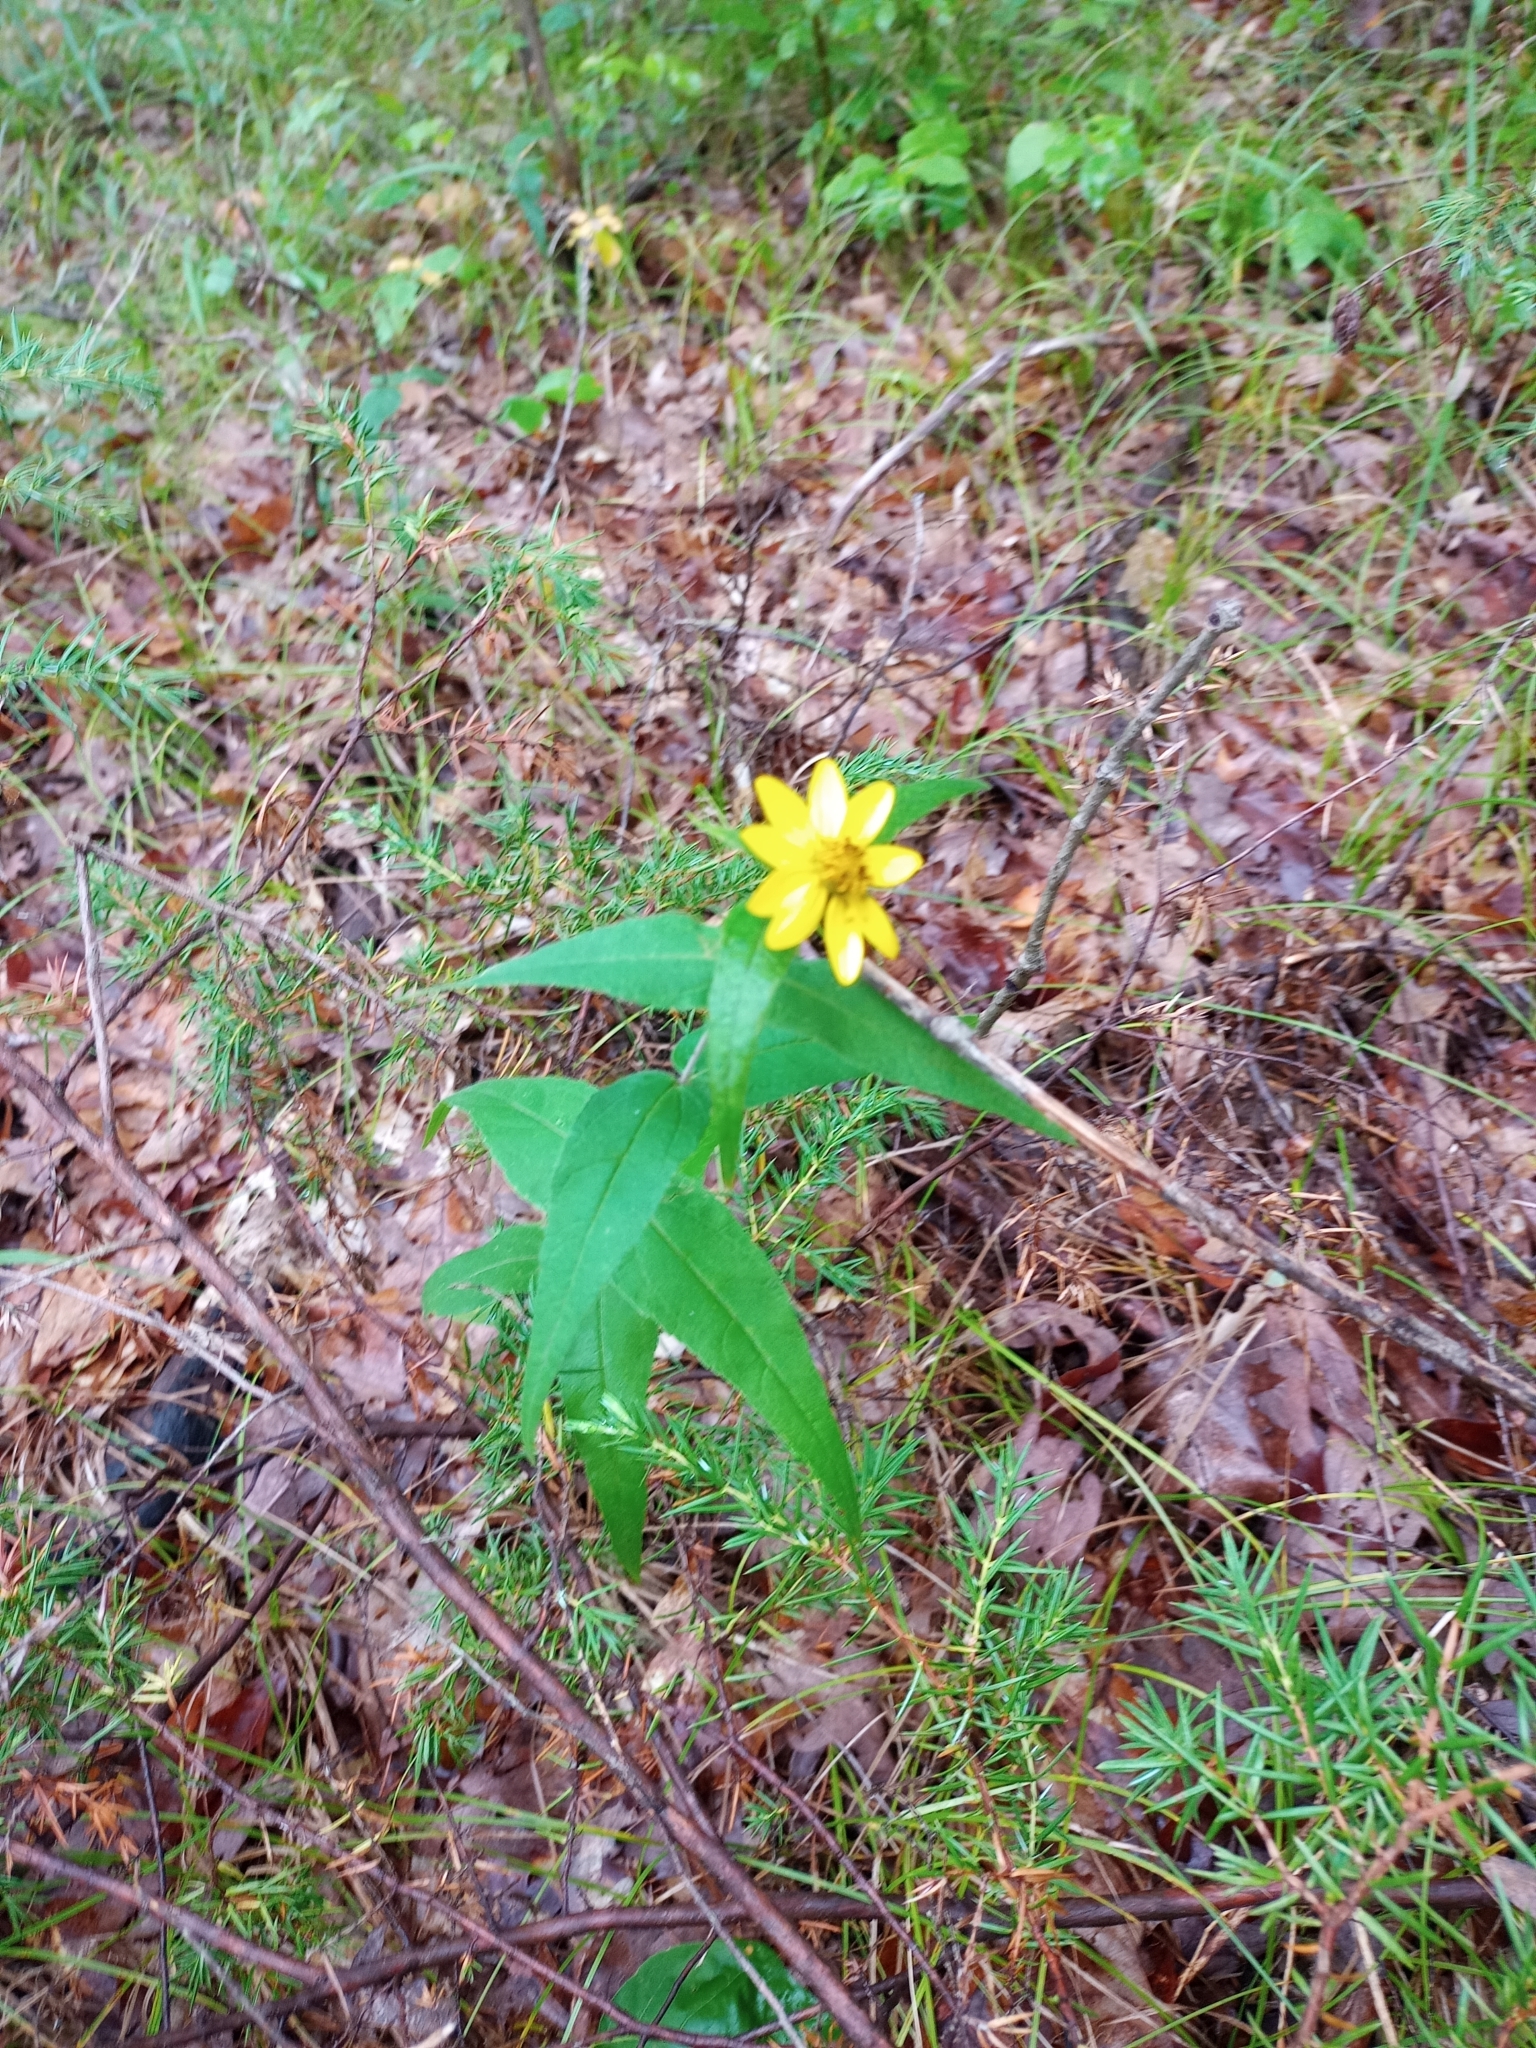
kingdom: Plantae
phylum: Tracheophyta
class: Magnoliopsida
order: Asterales
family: Asteraceae
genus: Helianthus
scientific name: Helianthus divaricatus
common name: Divergent sunflower
